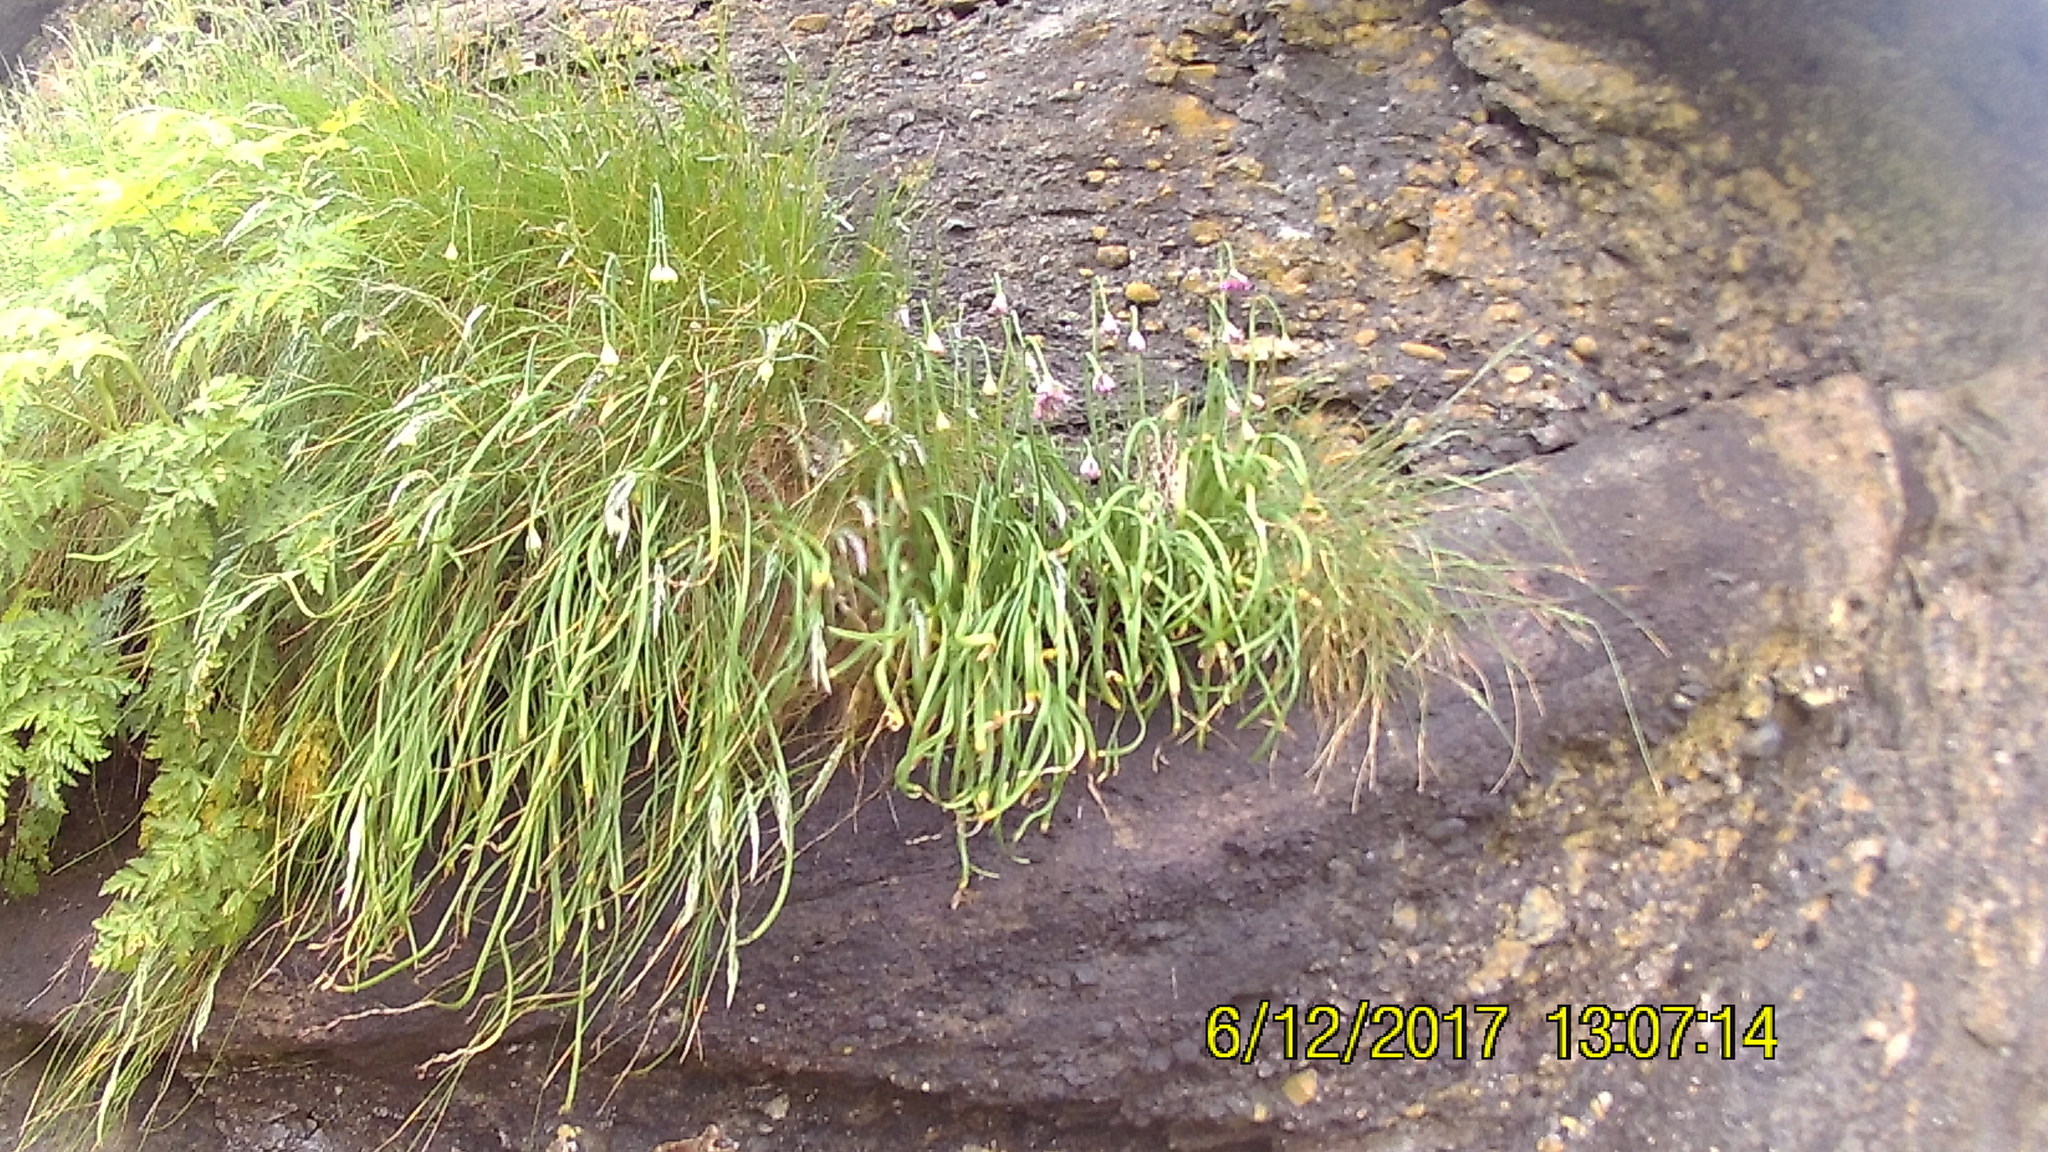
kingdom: Plantae
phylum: Tracheophyta
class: Liliopsida
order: Asparagales
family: Amaryllidaceae
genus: Allium
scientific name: Allium cernuum
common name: Nodding onion
